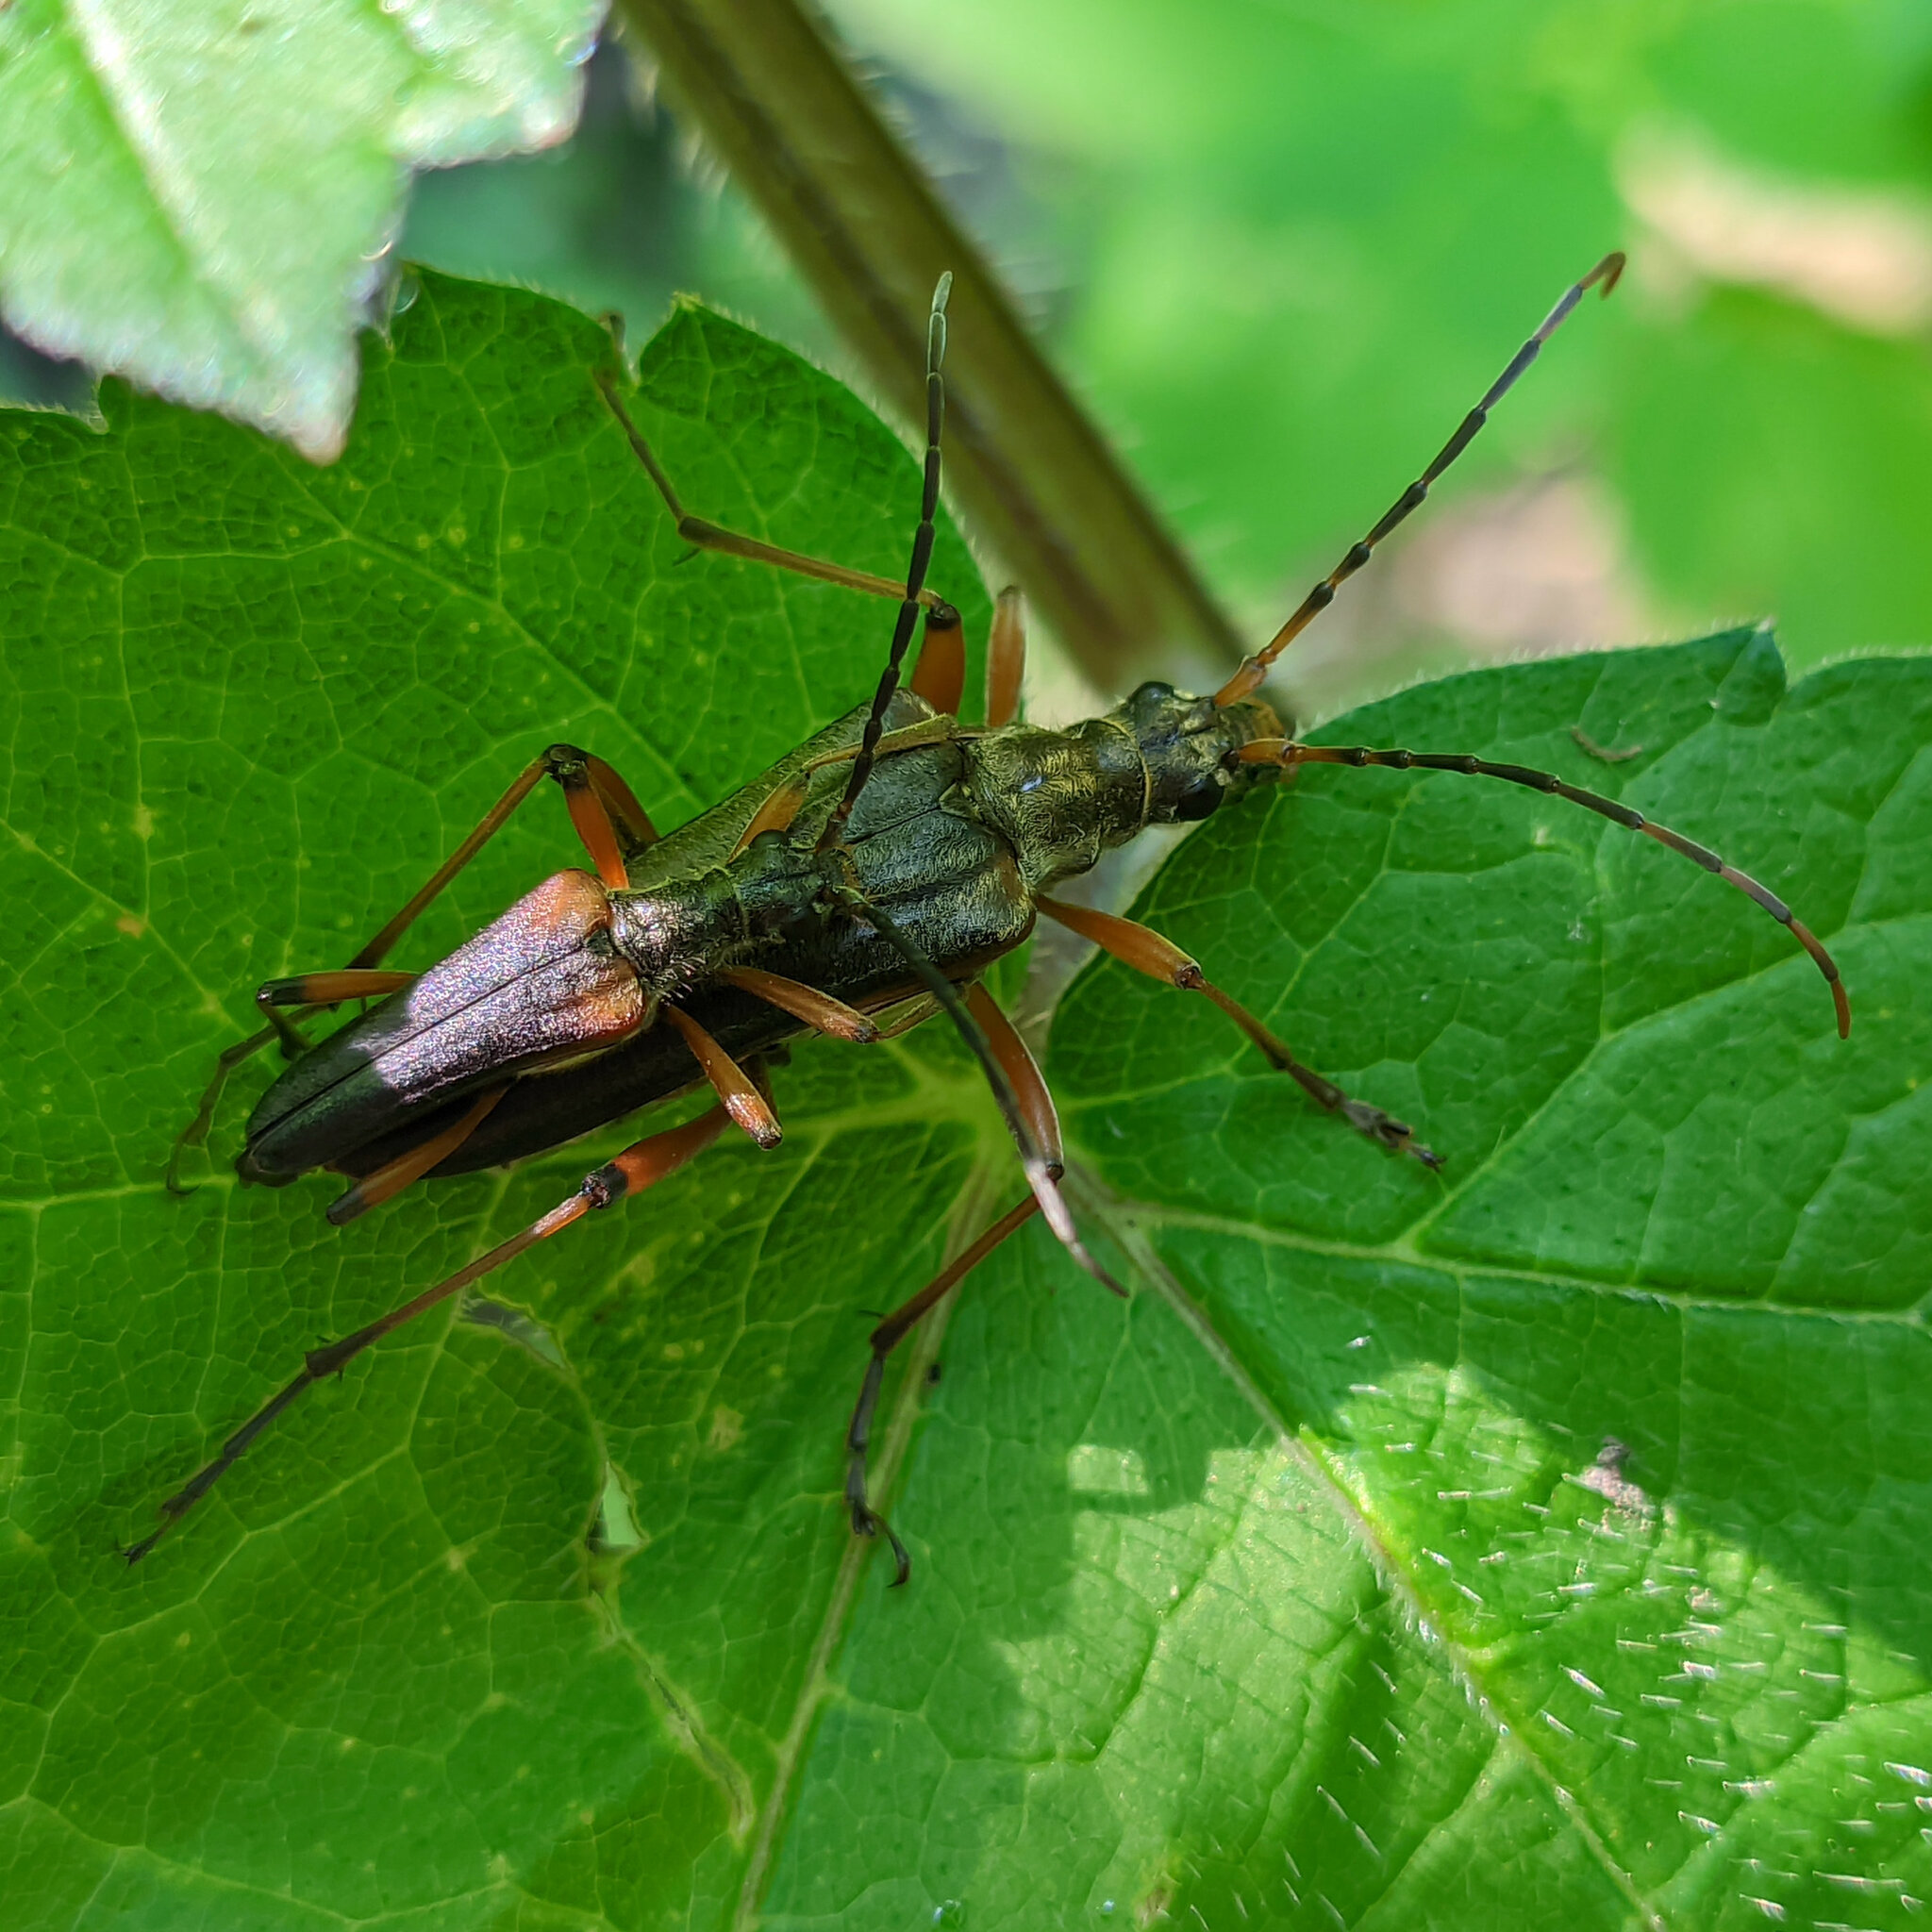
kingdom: Animalia
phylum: Arthropoda
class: Insecta
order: Coleoptera
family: Cerambycidae
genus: Stenocorus
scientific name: Stenocorus meridianus
